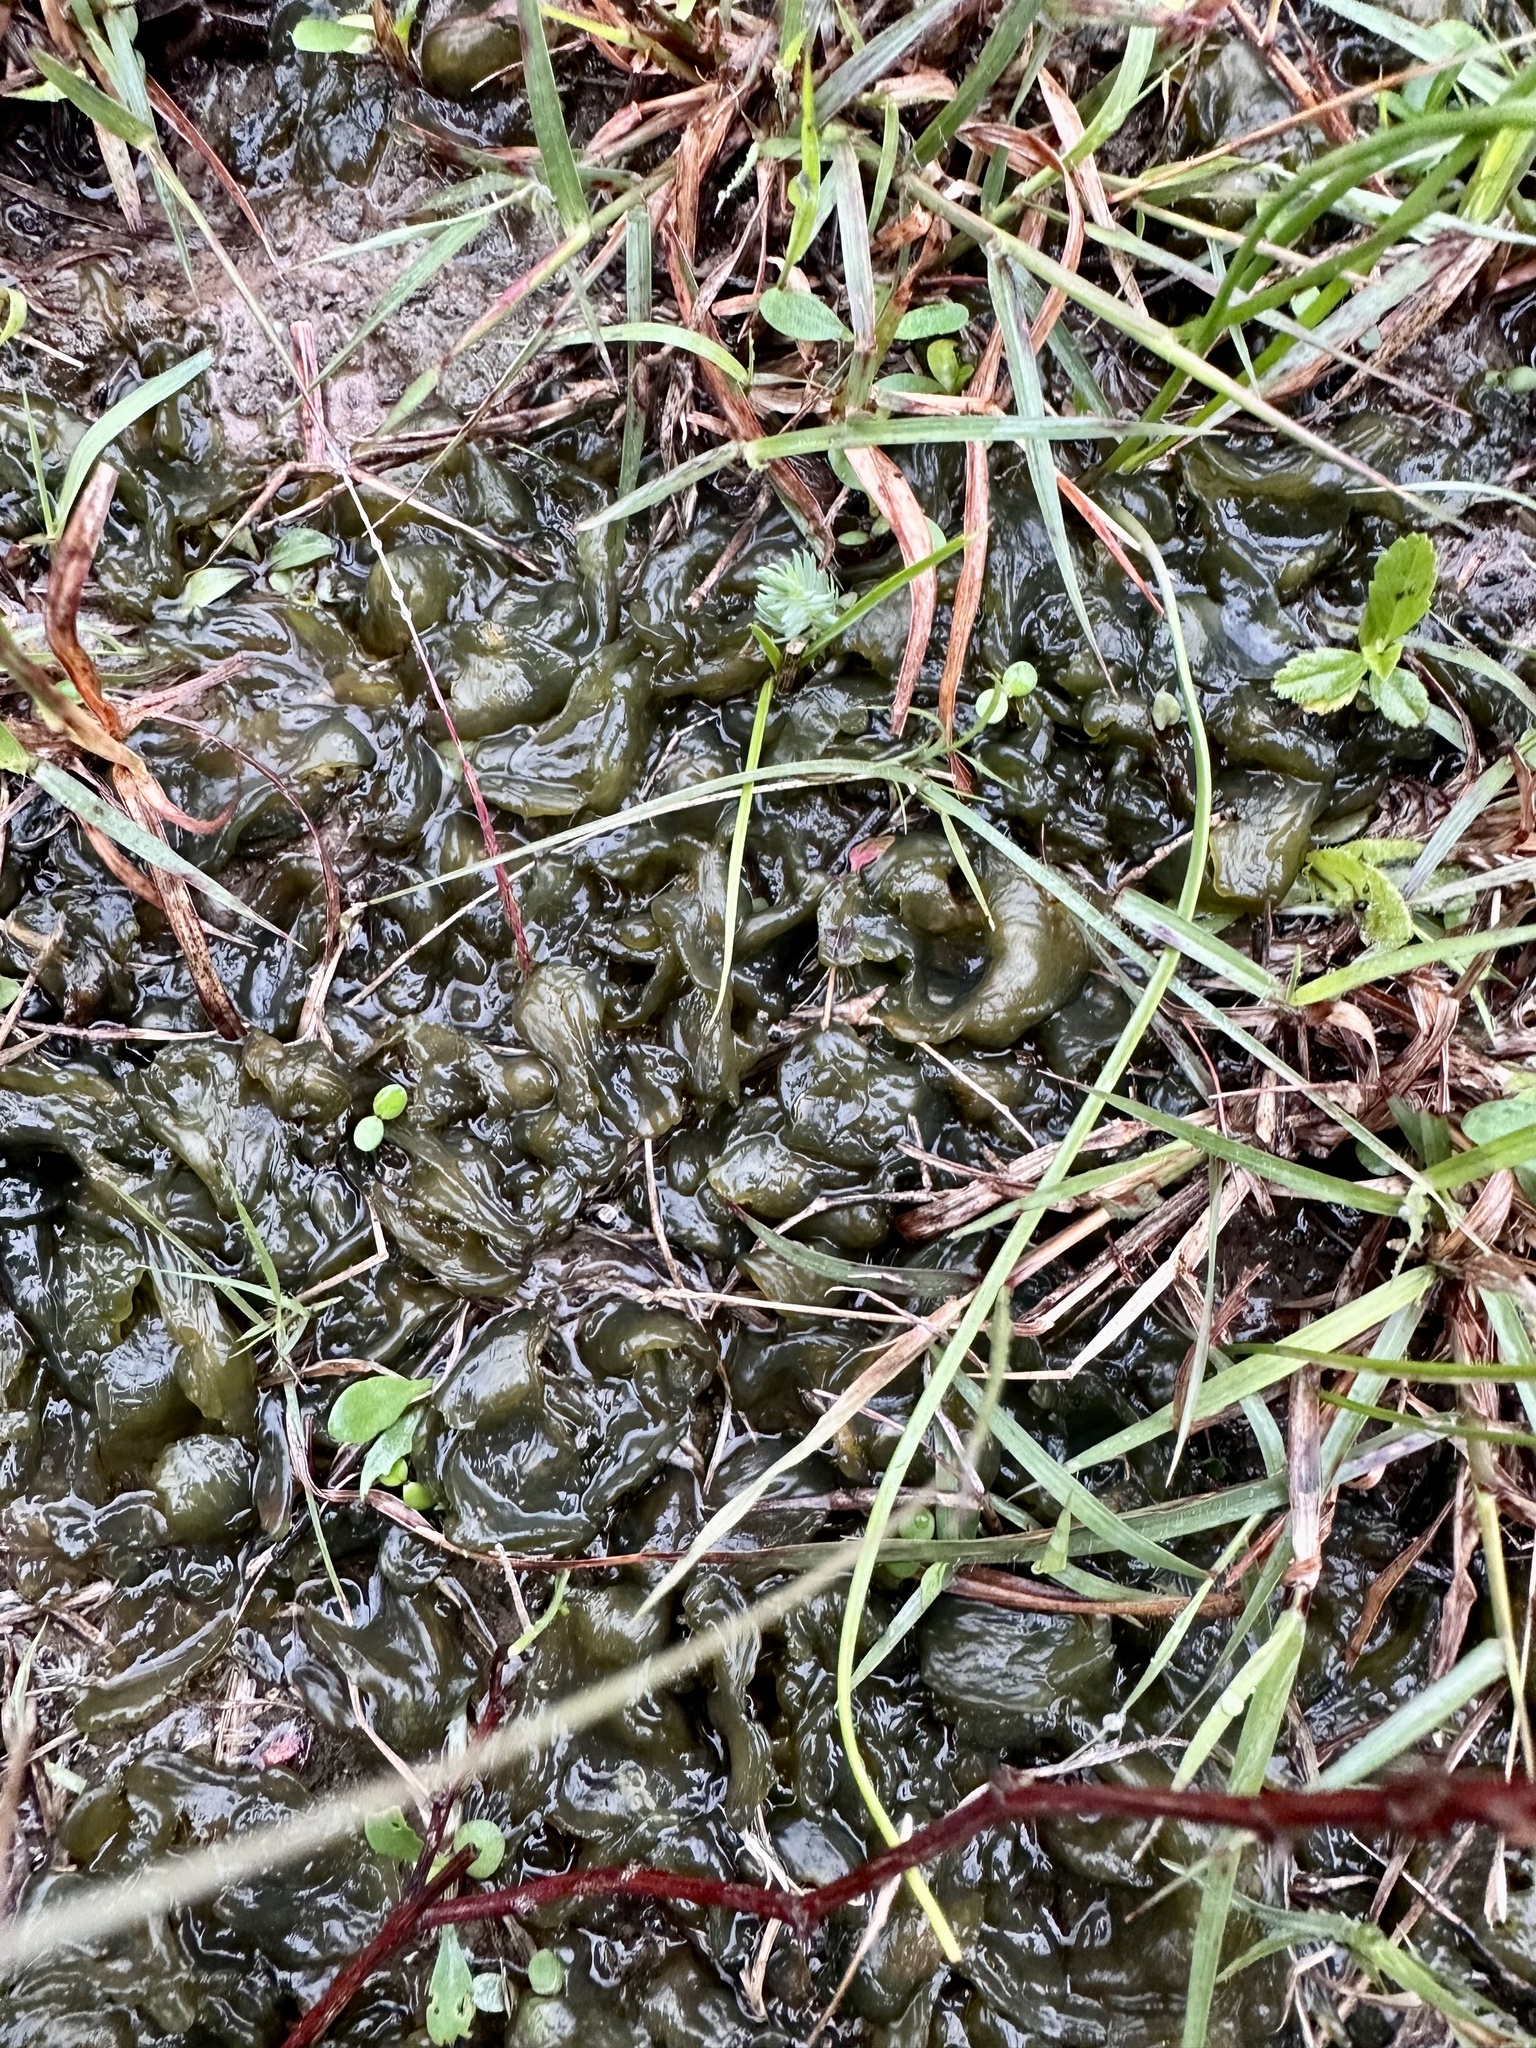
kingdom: Bacteria
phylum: Cyanobacteria
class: Cyanobacteriia
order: Cyanobacteriales
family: Nostocaceae
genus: Nostoc
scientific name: Nostoc commune
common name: Star jelly
